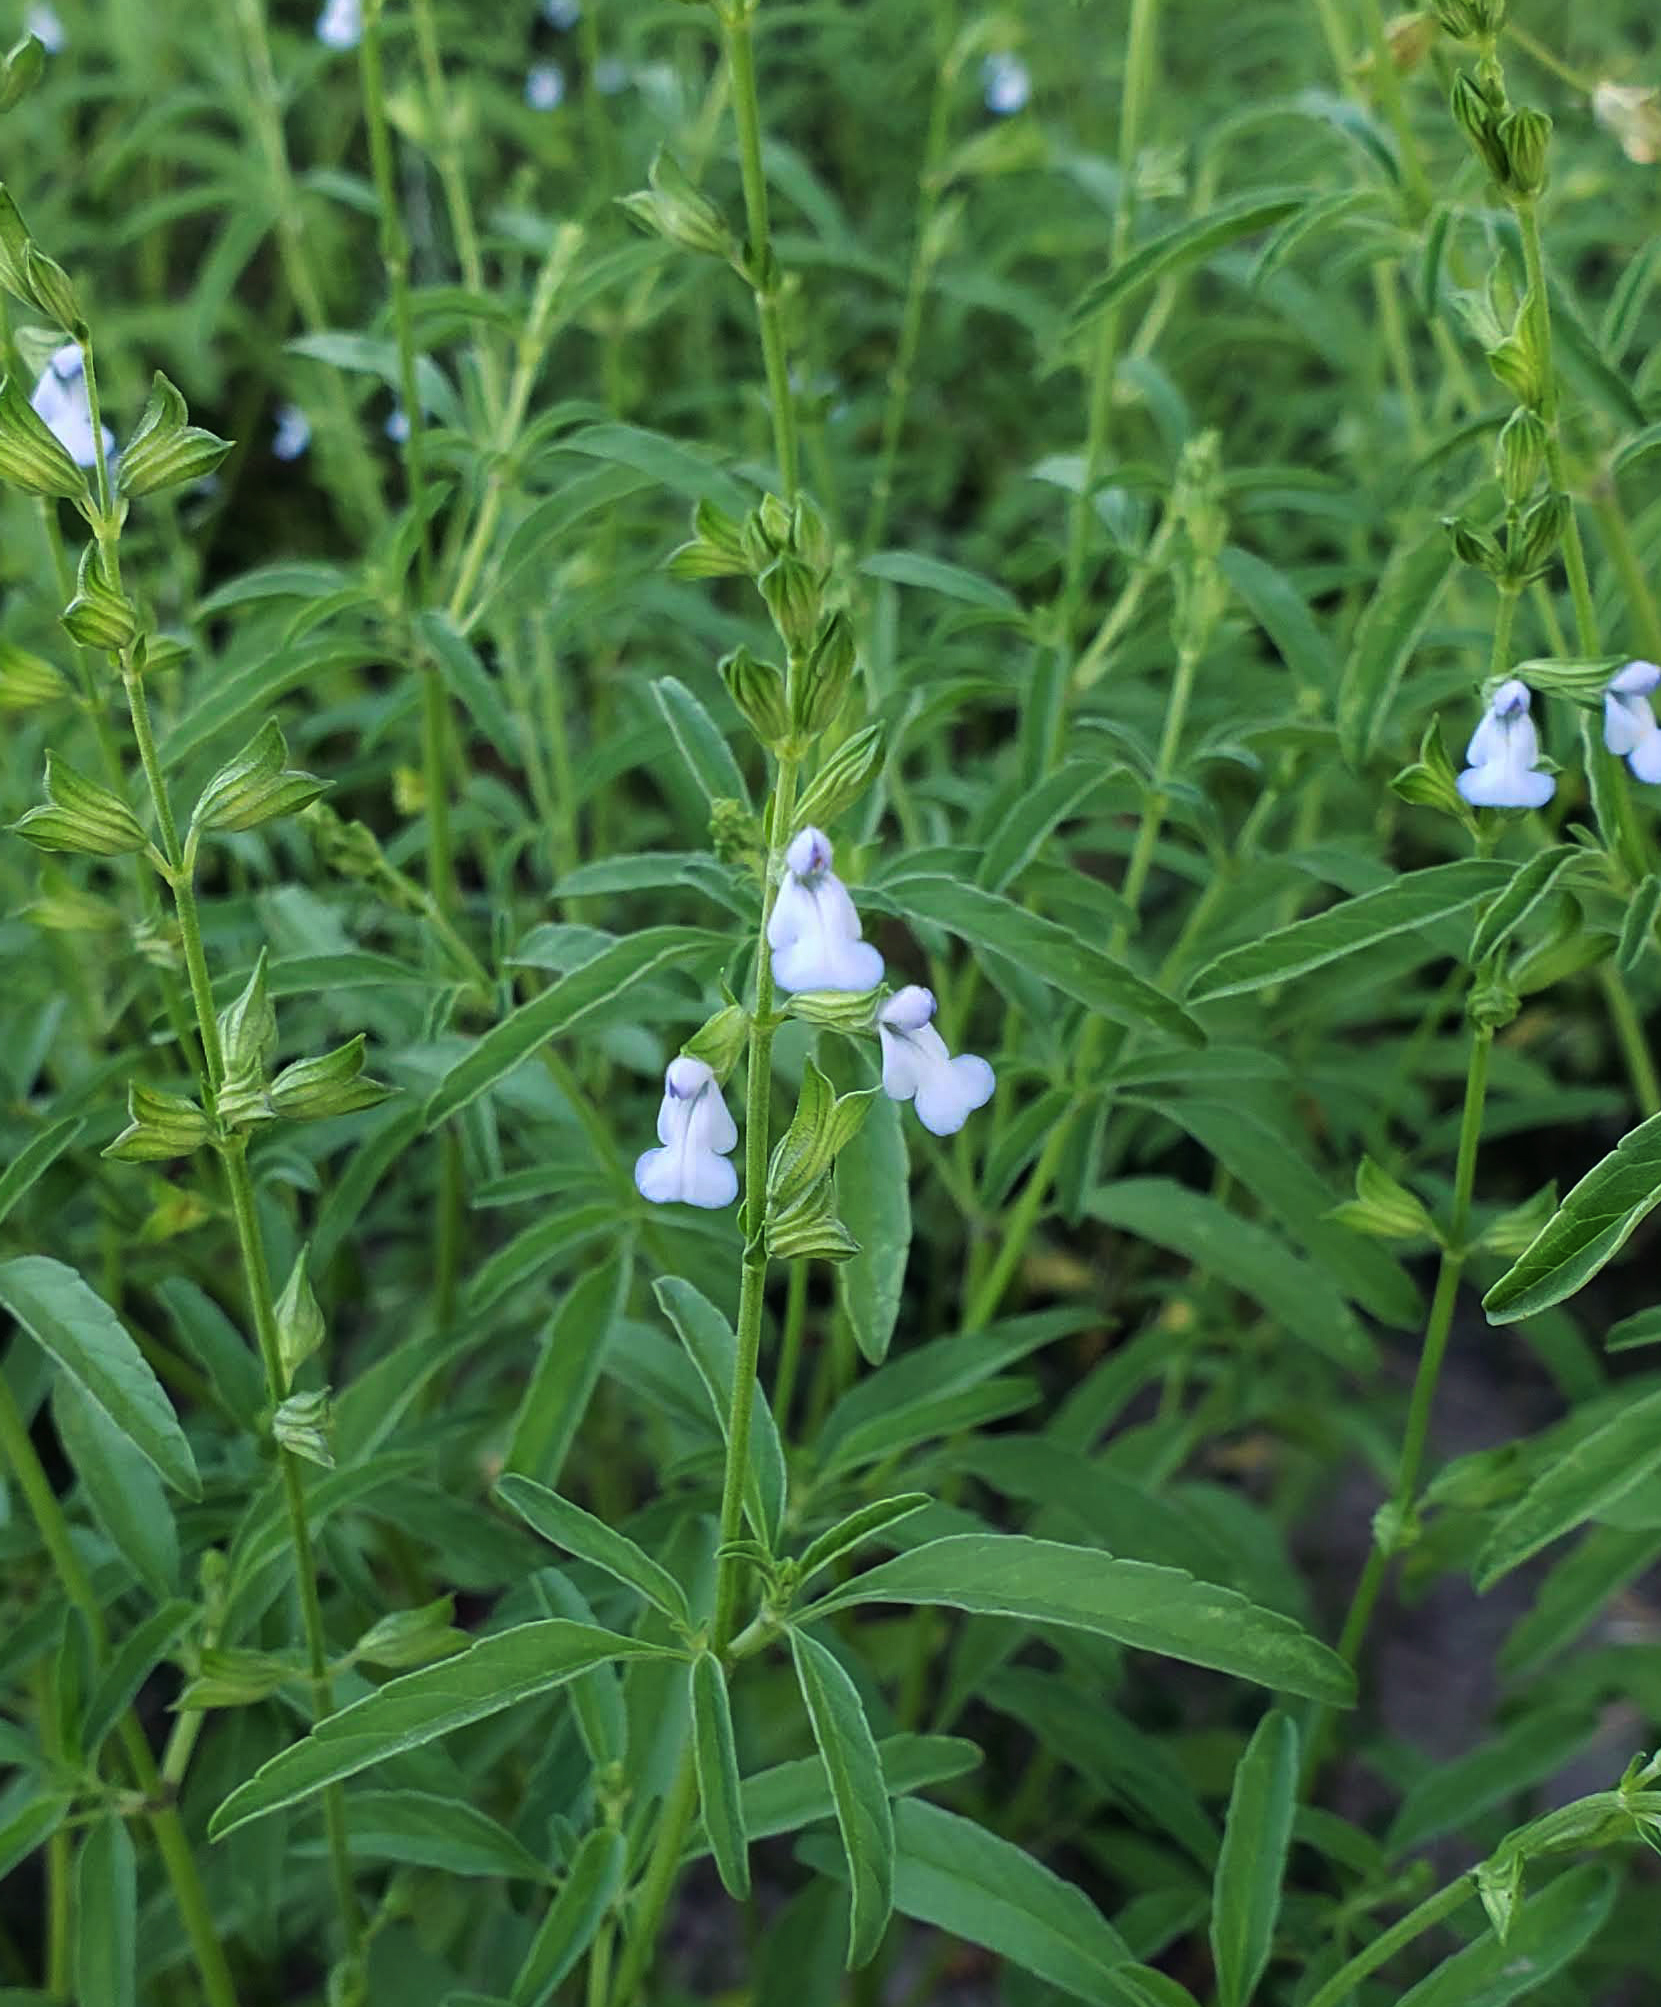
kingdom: Plantae
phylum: Tracheophyta
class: Magnoliopsida
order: Lamiales
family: Lamiaceae
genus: Salvia
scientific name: Salvia reflexa
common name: Mintweed
